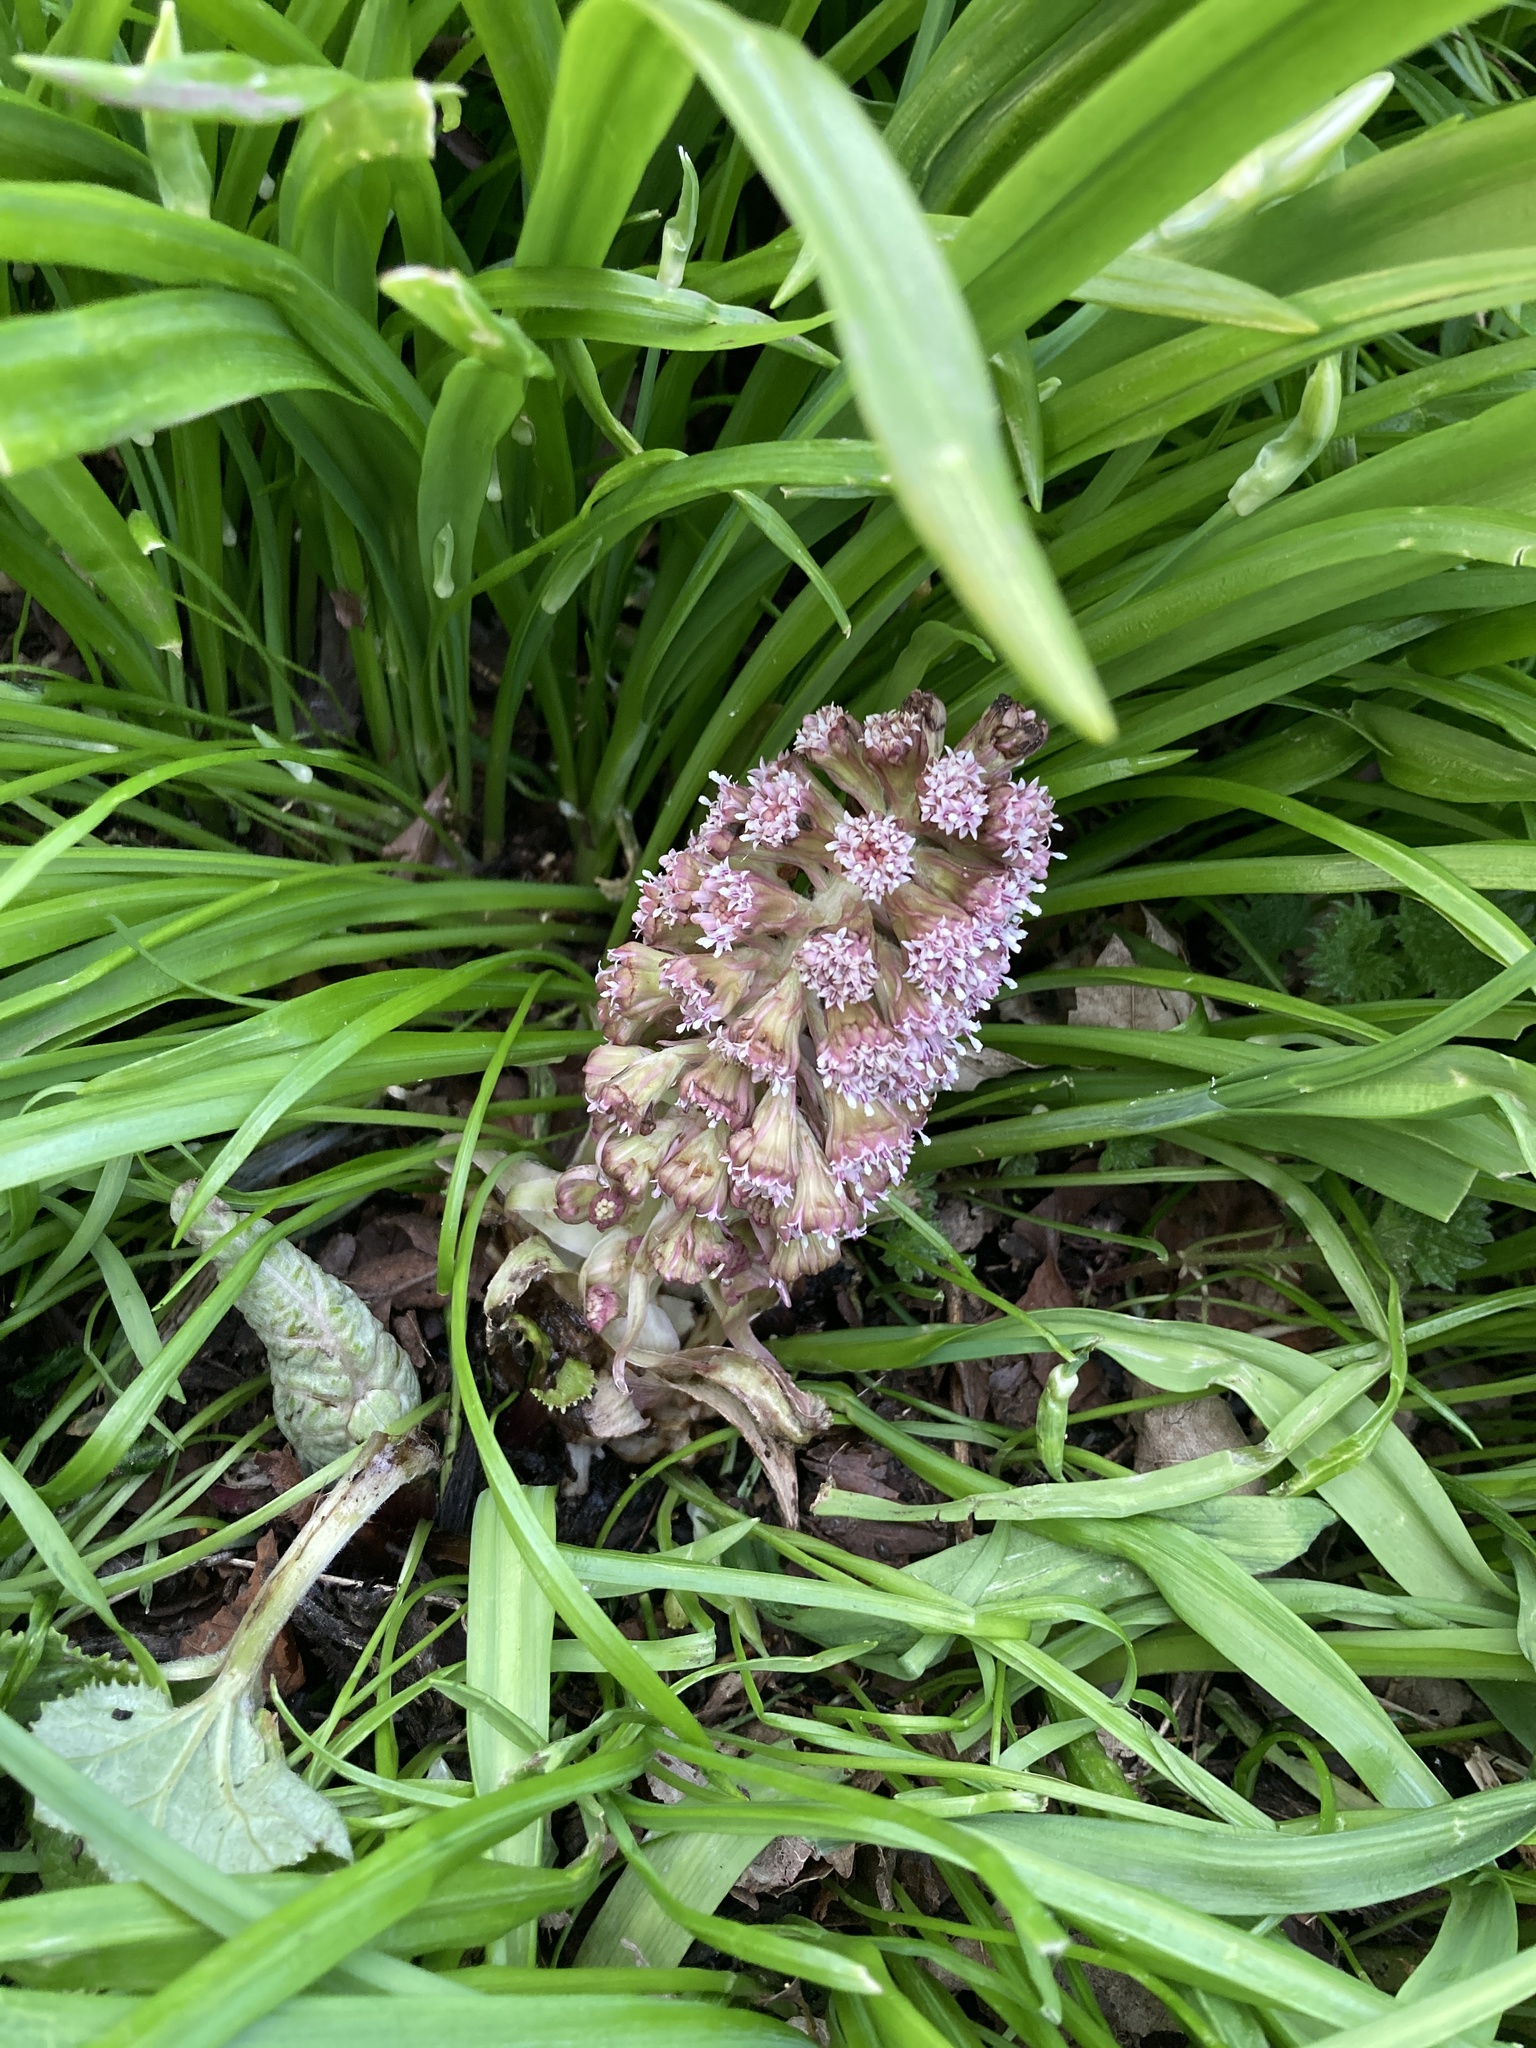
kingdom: Plantae
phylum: Tracheophyta
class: Magnoliopsida
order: Asterales
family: Asteraceae
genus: Petasites
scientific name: Petasites hybridus
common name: Butterbur
